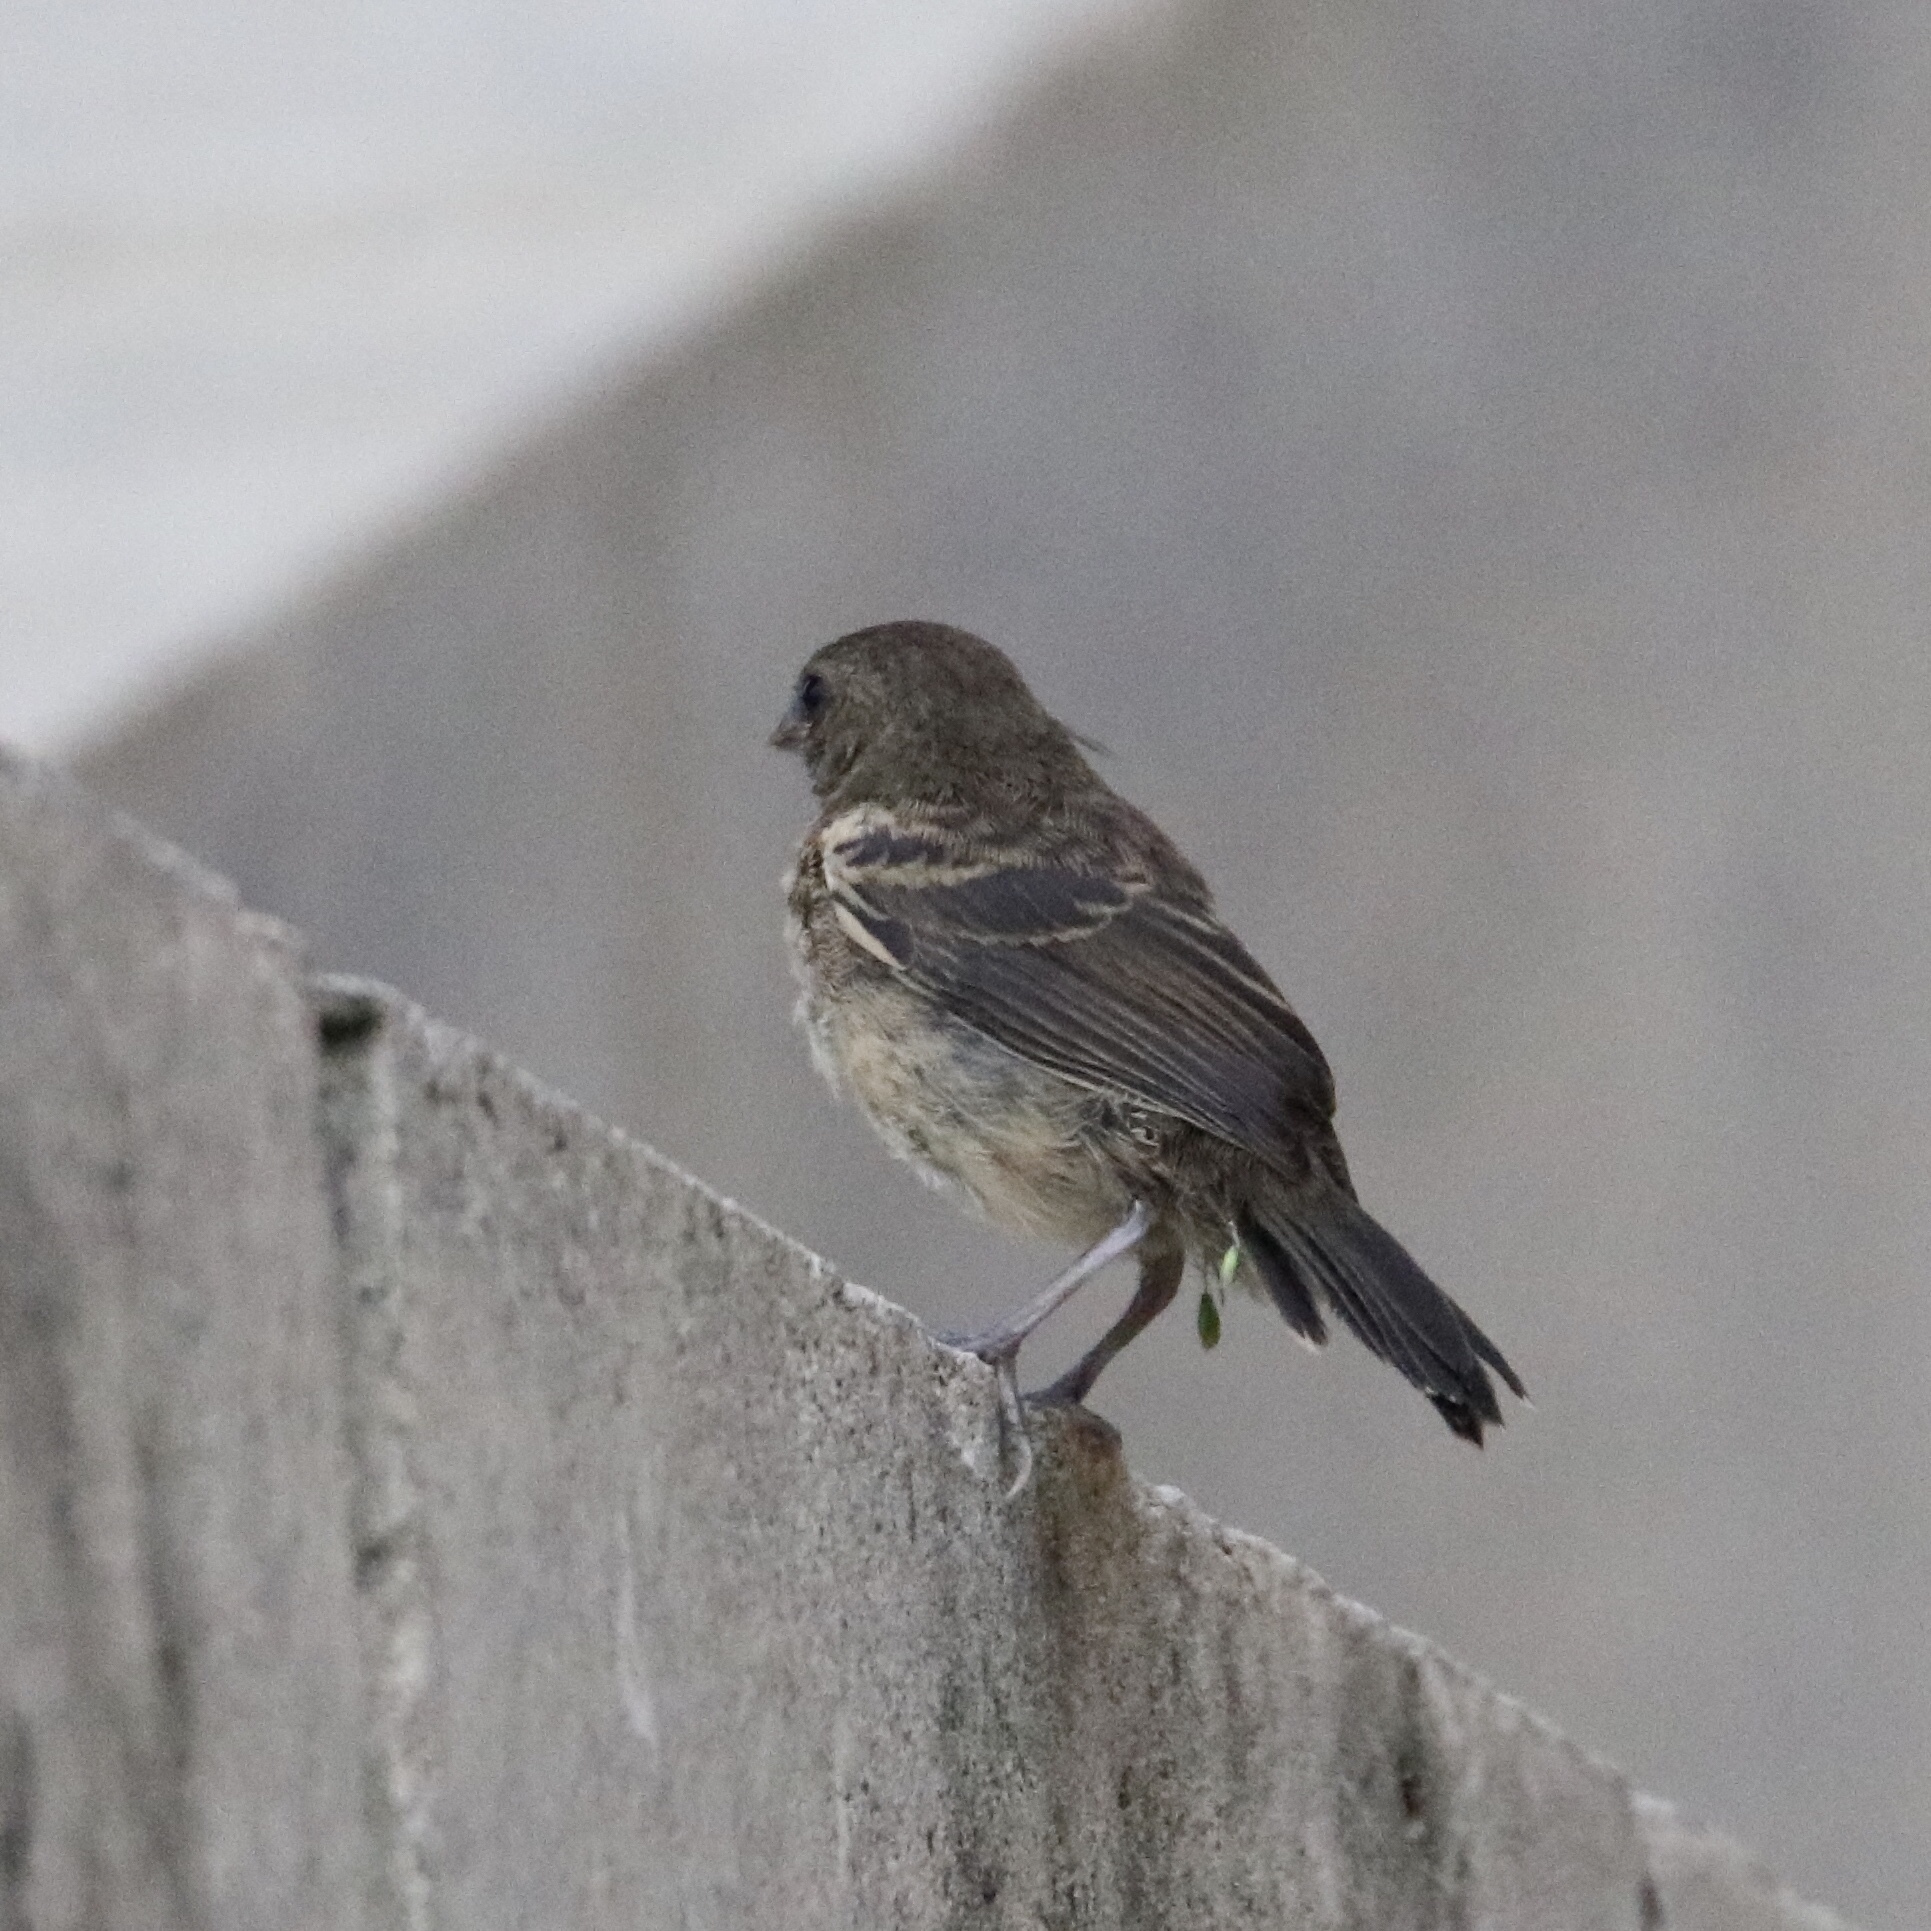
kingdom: Animalia
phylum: Chordata
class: Aves
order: Passeriformes
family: Thraupidae
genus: Sporophila
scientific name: Sporophila corvina
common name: Variable seedeater
